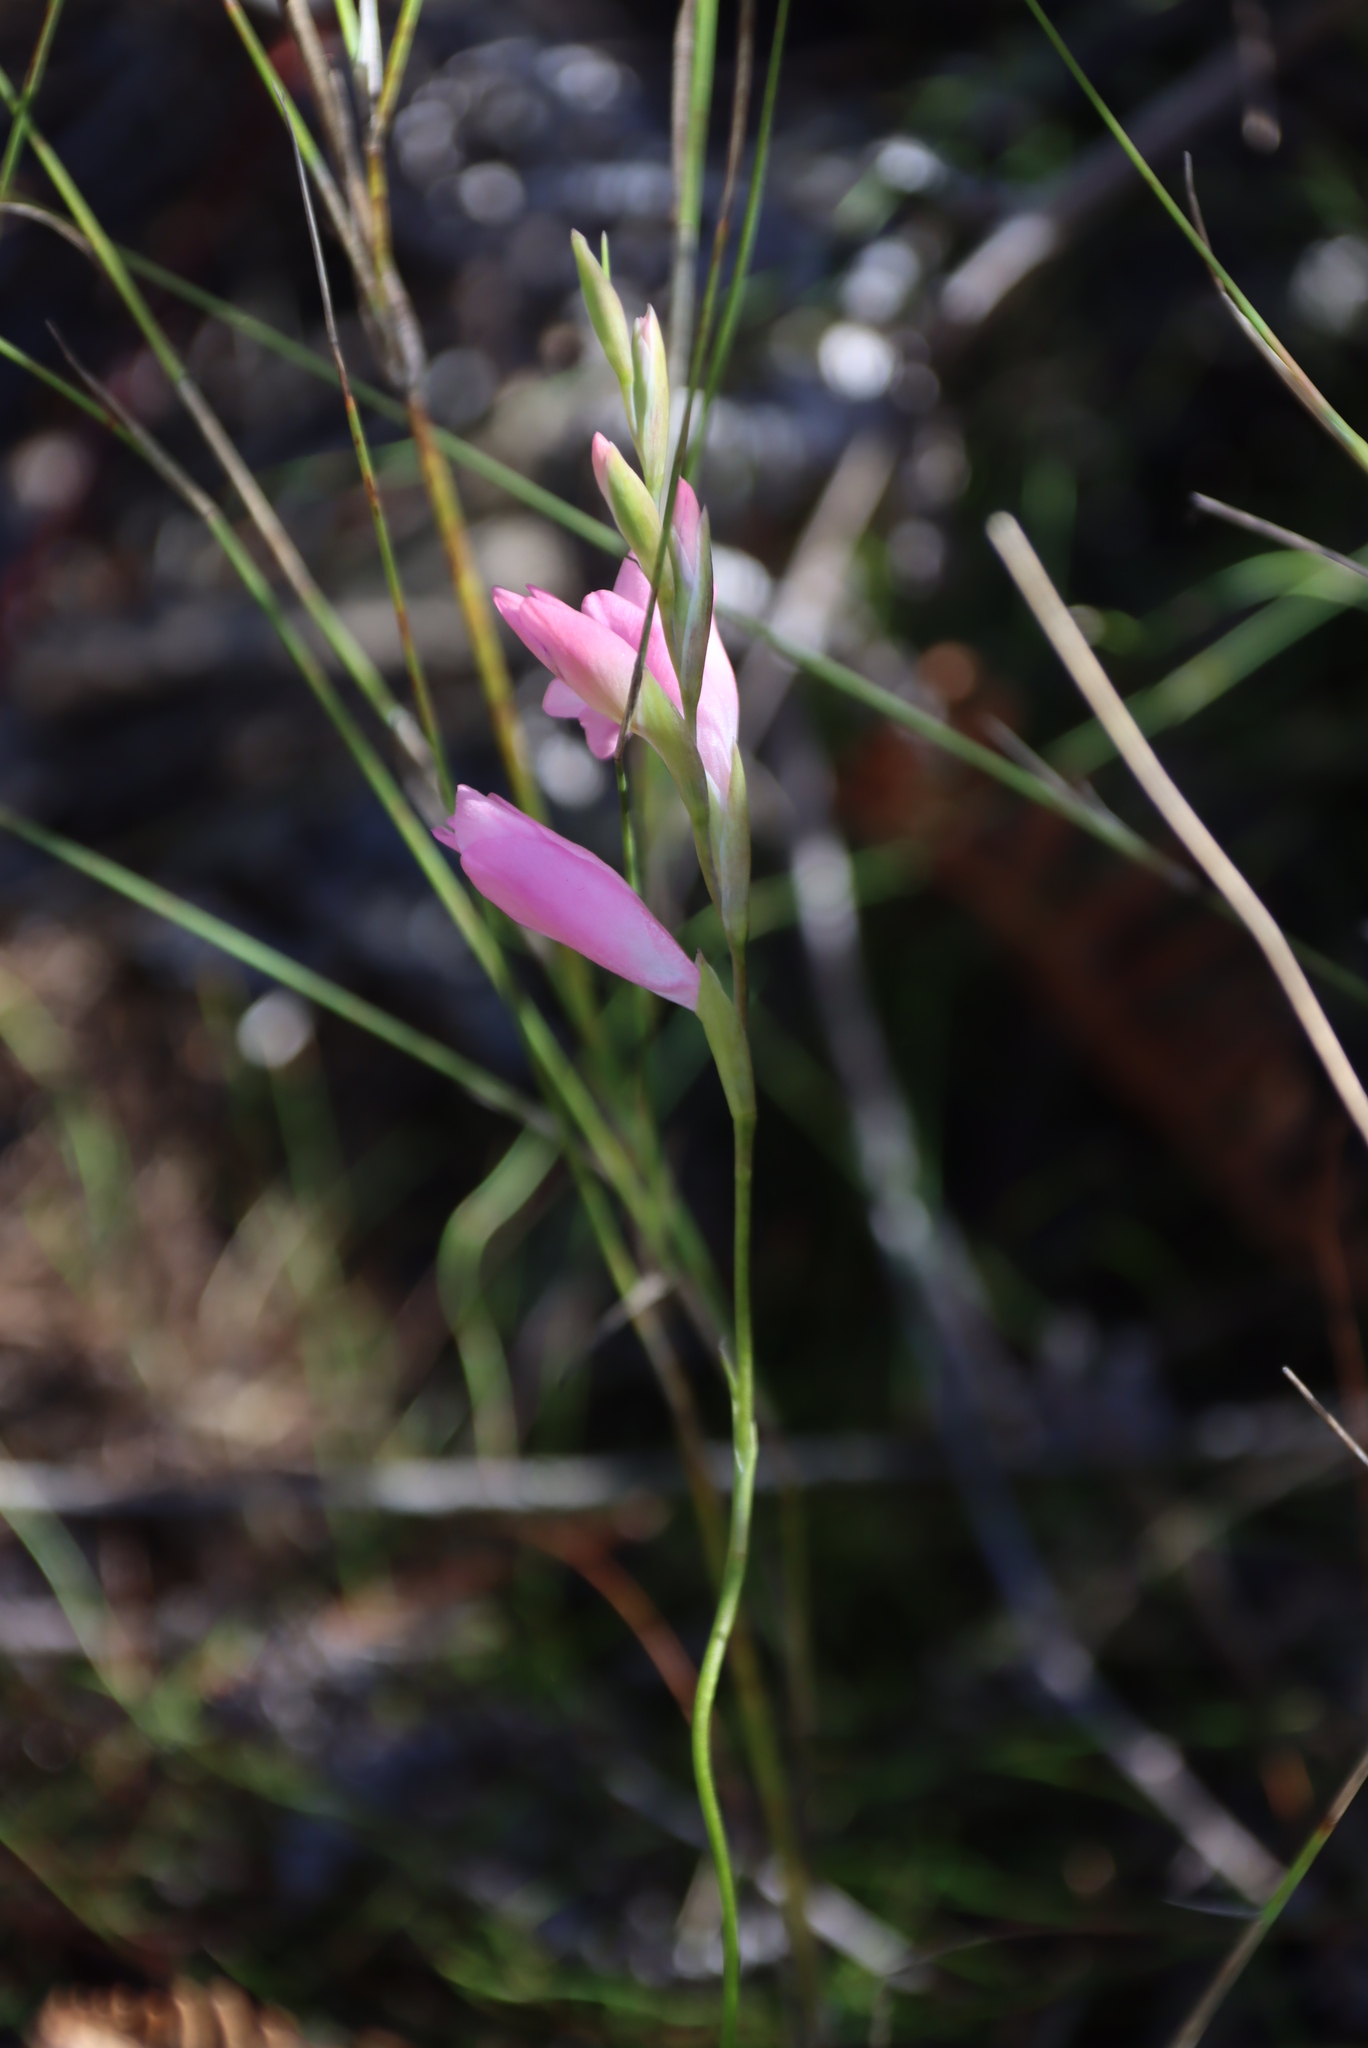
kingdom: Plantae
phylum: Tracheophyta
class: Liliopsida
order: Asparagales
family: Iridaceae
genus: Gladiolus
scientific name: Gladiolus brevifolius
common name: March pypie
